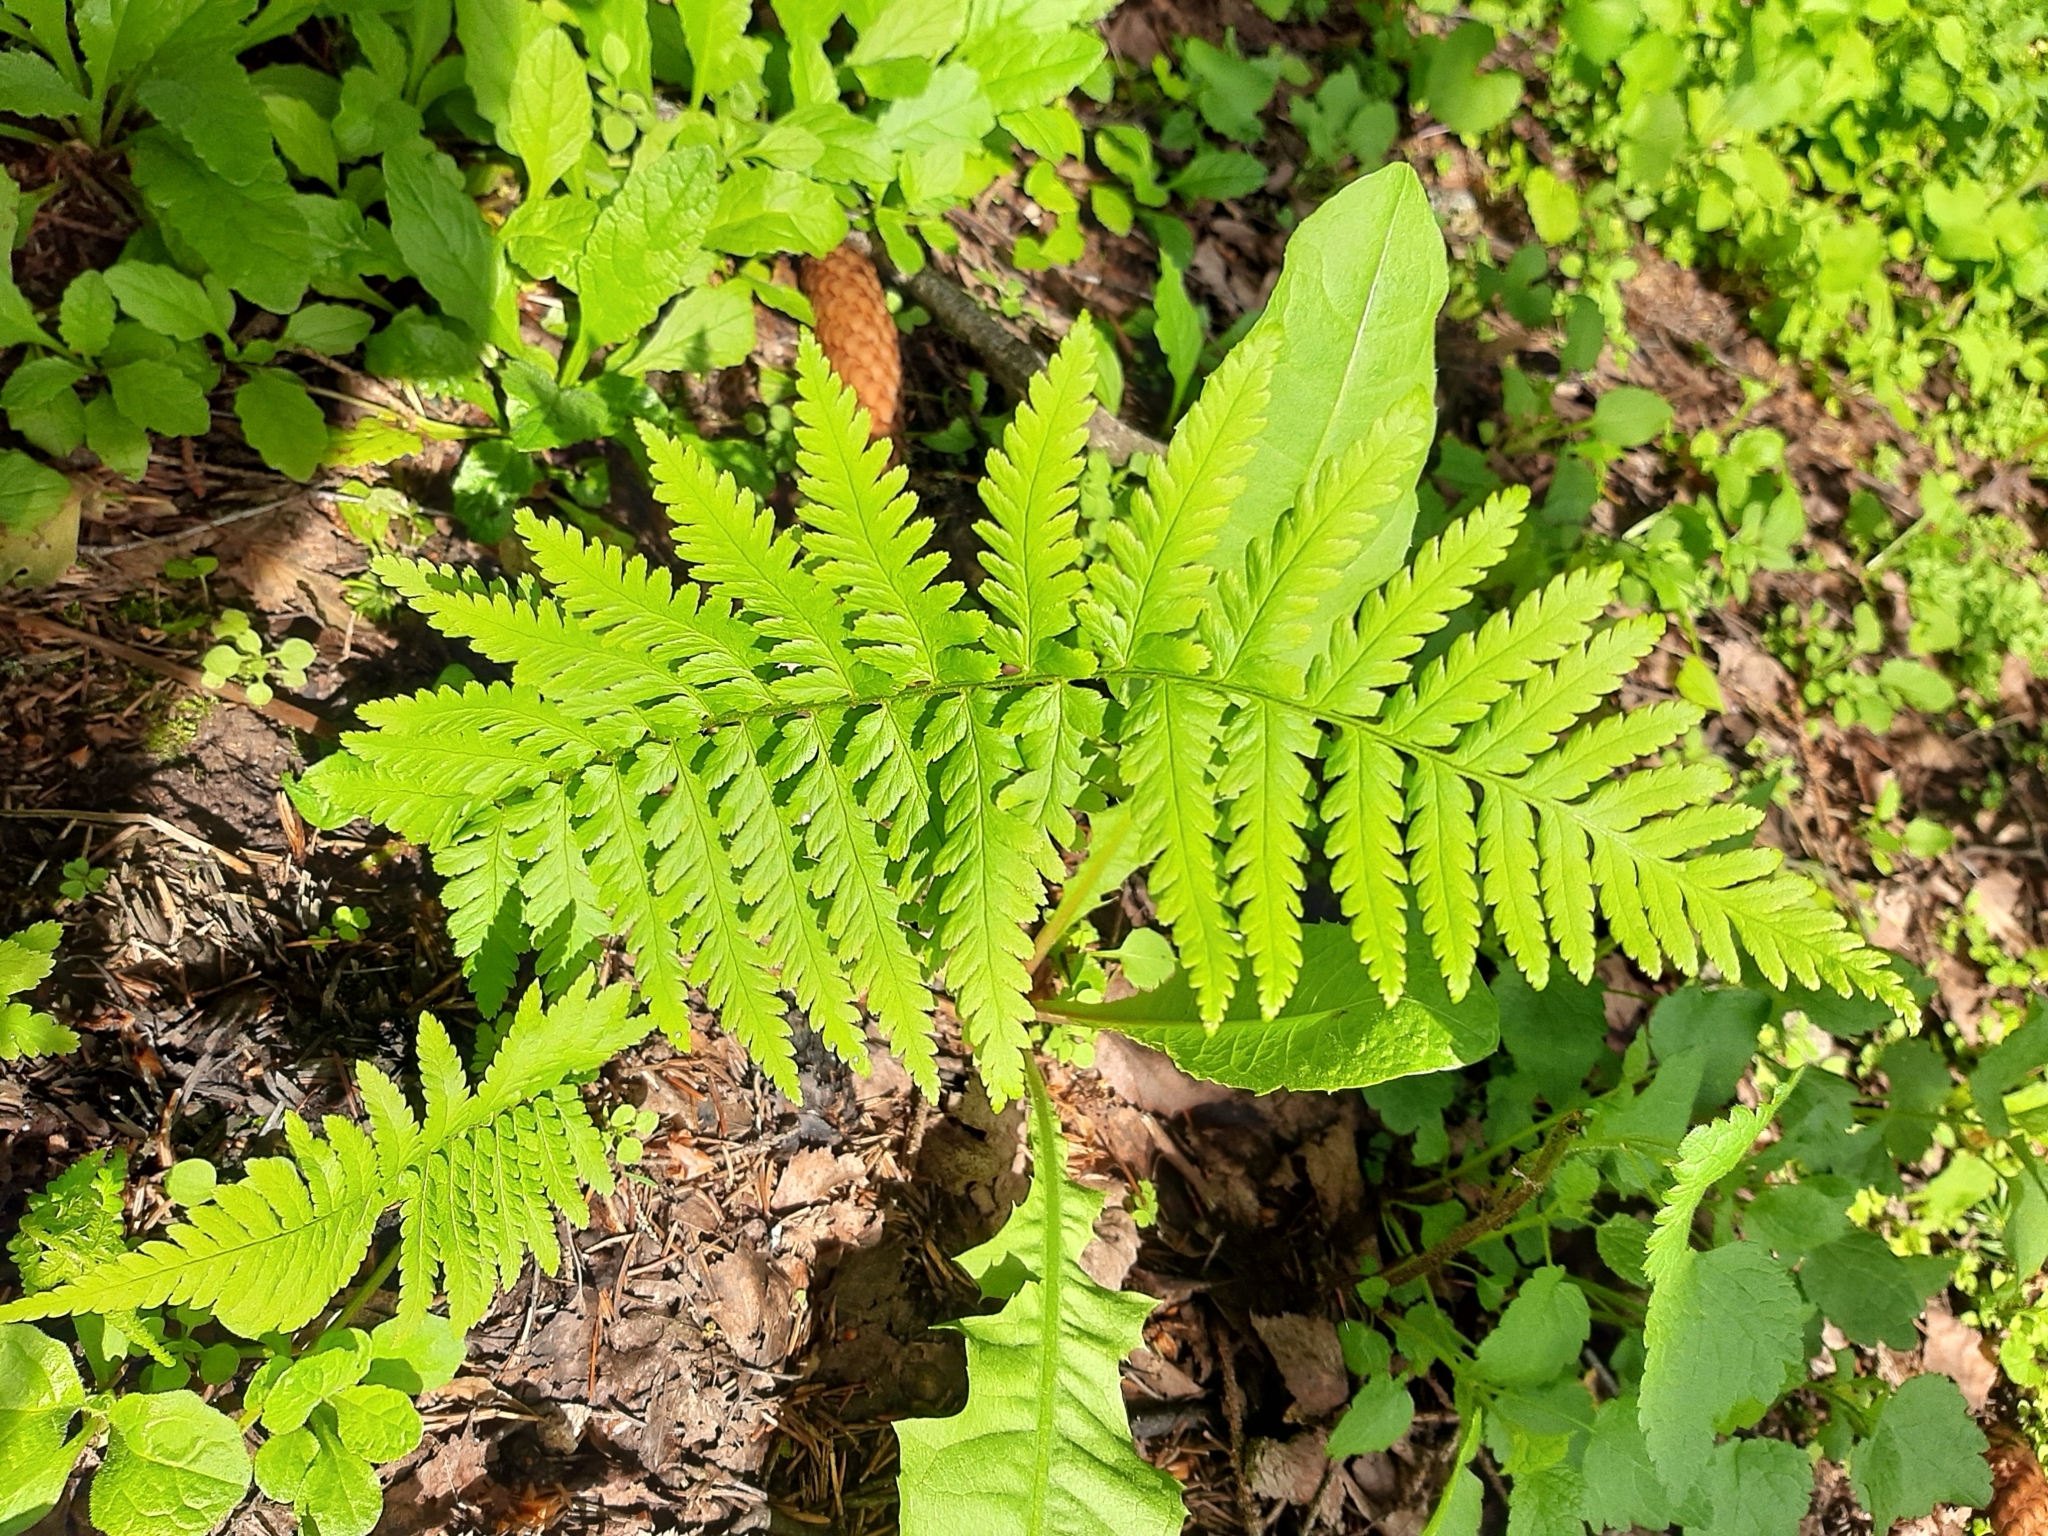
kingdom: Plantae
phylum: Tracheophyta
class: Polypodiopsida
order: Polypodiales
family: Dryopteridaceae
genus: Dryopteris
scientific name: Dryopteris filix-mas
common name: Male fern
